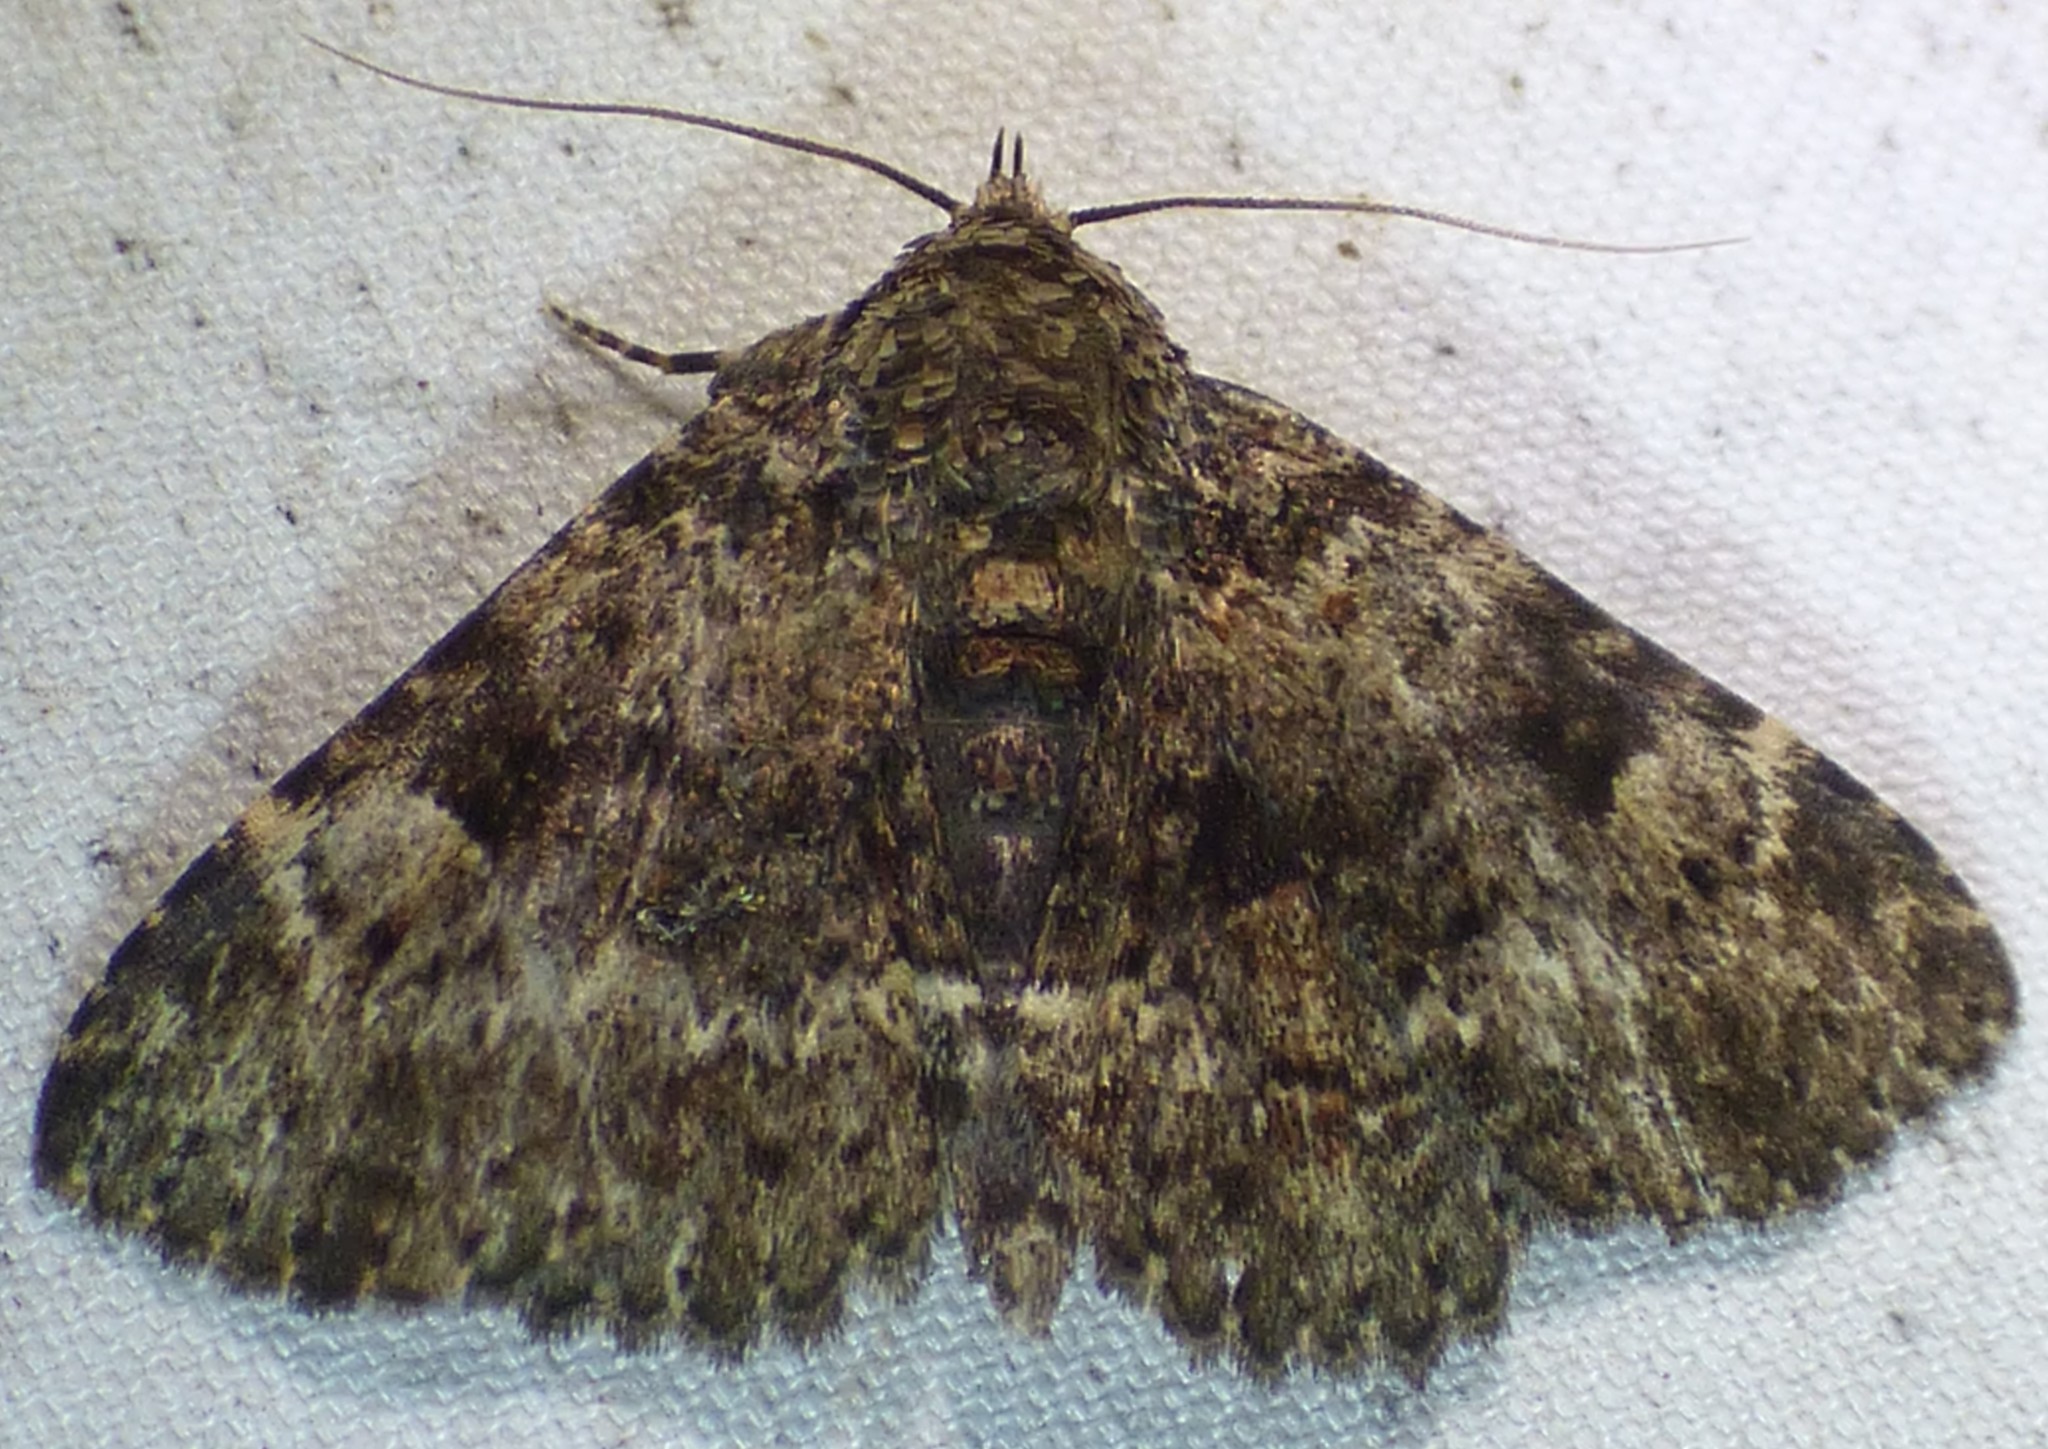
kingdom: Animalia
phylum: Arthropoda
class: Insecta
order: Lepidoptera
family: Erebidae
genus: Metalectra
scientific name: Metalectra discalis
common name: Common fungus moth
